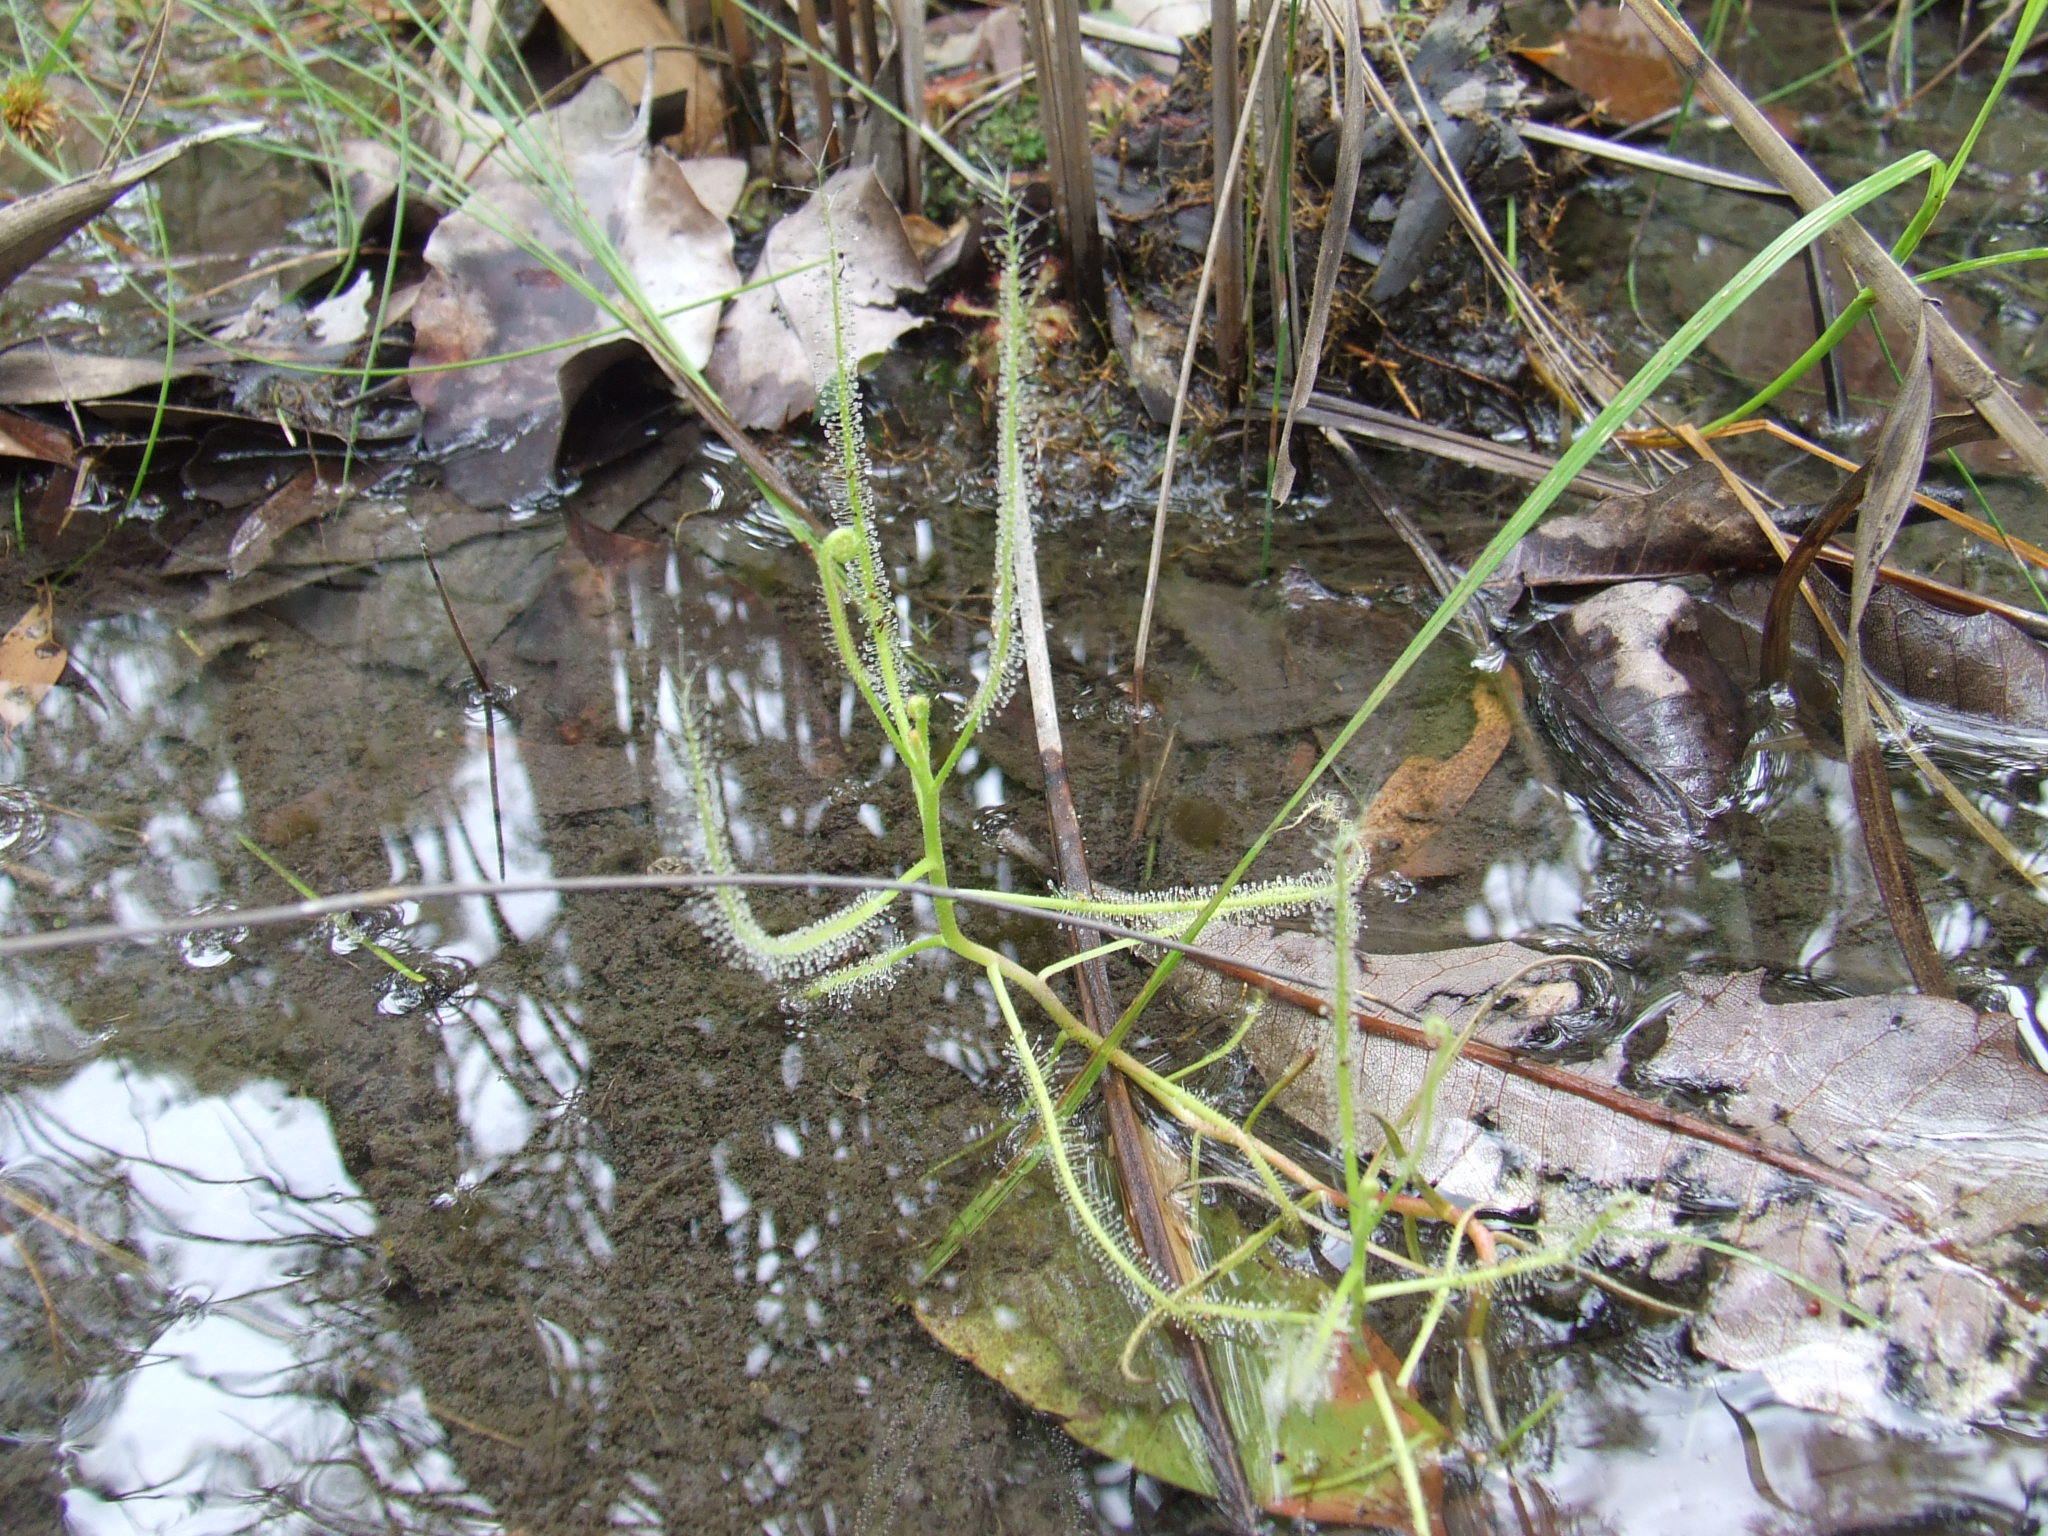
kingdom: Plantae
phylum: Tracheophyta
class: Magnoliopsida
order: Caryophyllales
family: Droseraceae
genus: Drosera
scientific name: Drosera indica
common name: Indian sundew
